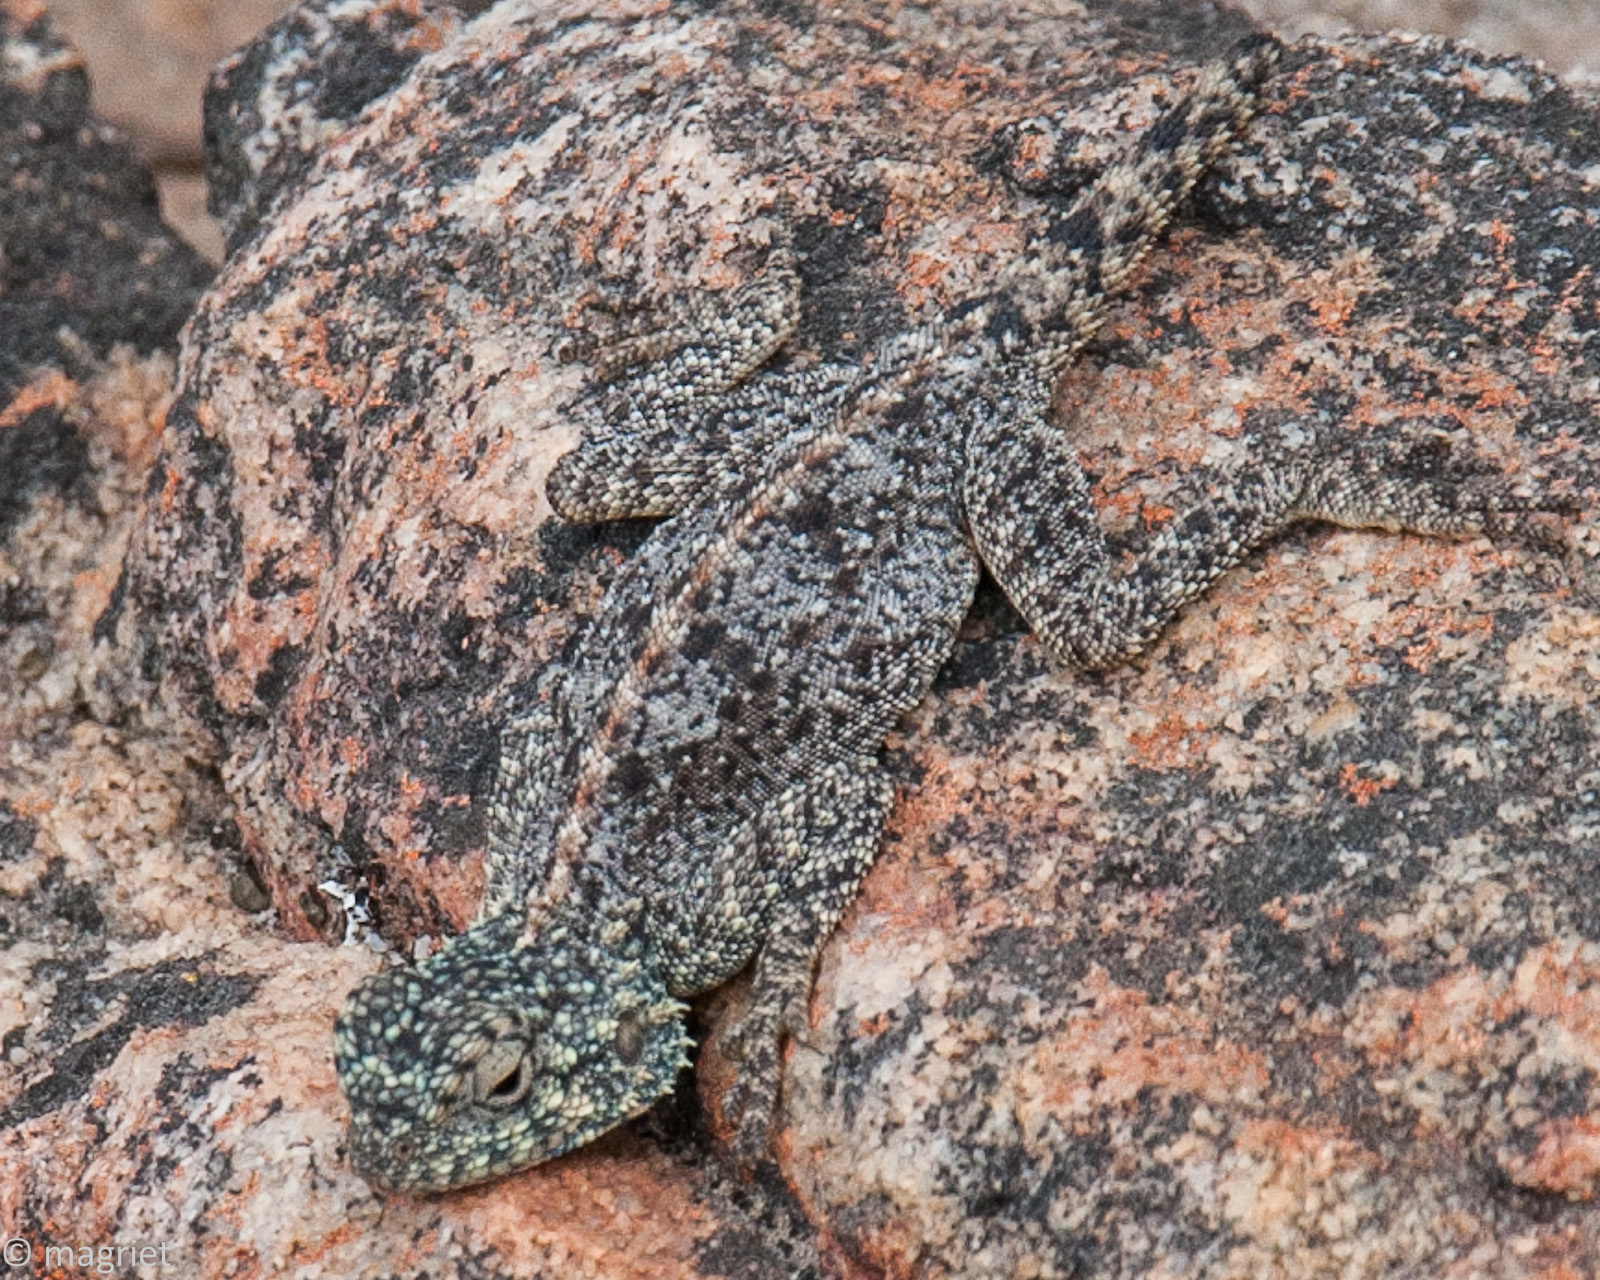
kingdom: Animalia
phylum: Chordata
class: Squamata
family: Agamidae
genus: Agama
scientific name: Agama atra
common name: Southern african rock agama
